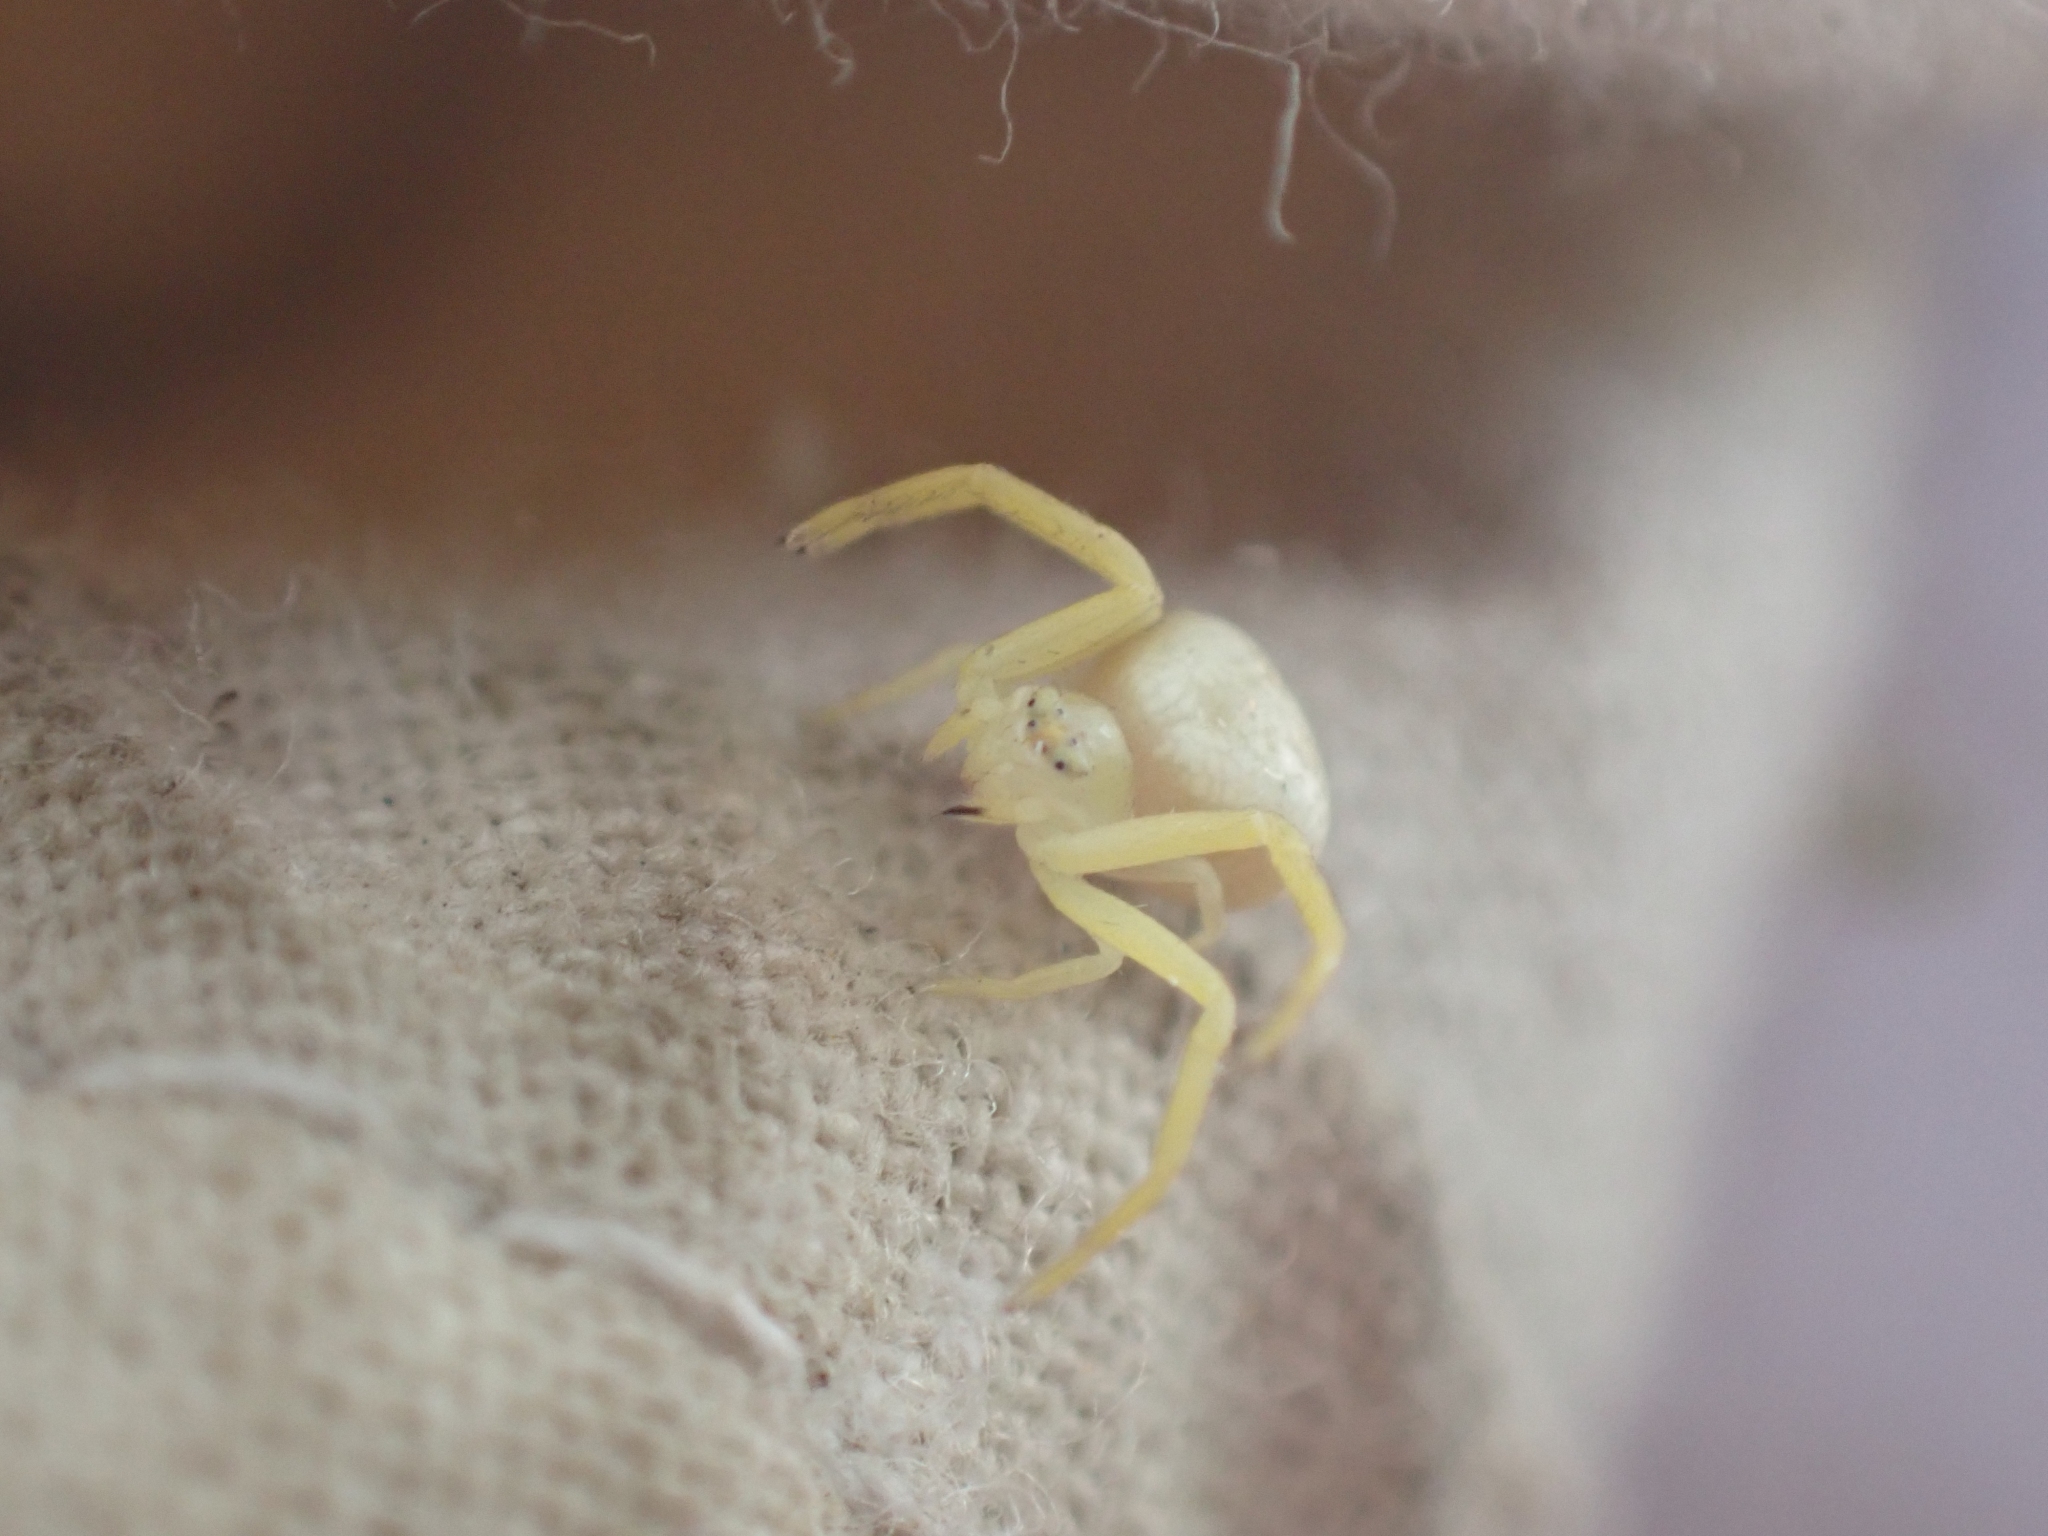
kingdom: Animalia
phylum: Arthropoda
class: Arachnida
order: Araneae
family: Thomisidae
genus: Misumena
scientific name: Misumena vatia
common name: Goldenrod crab spider
